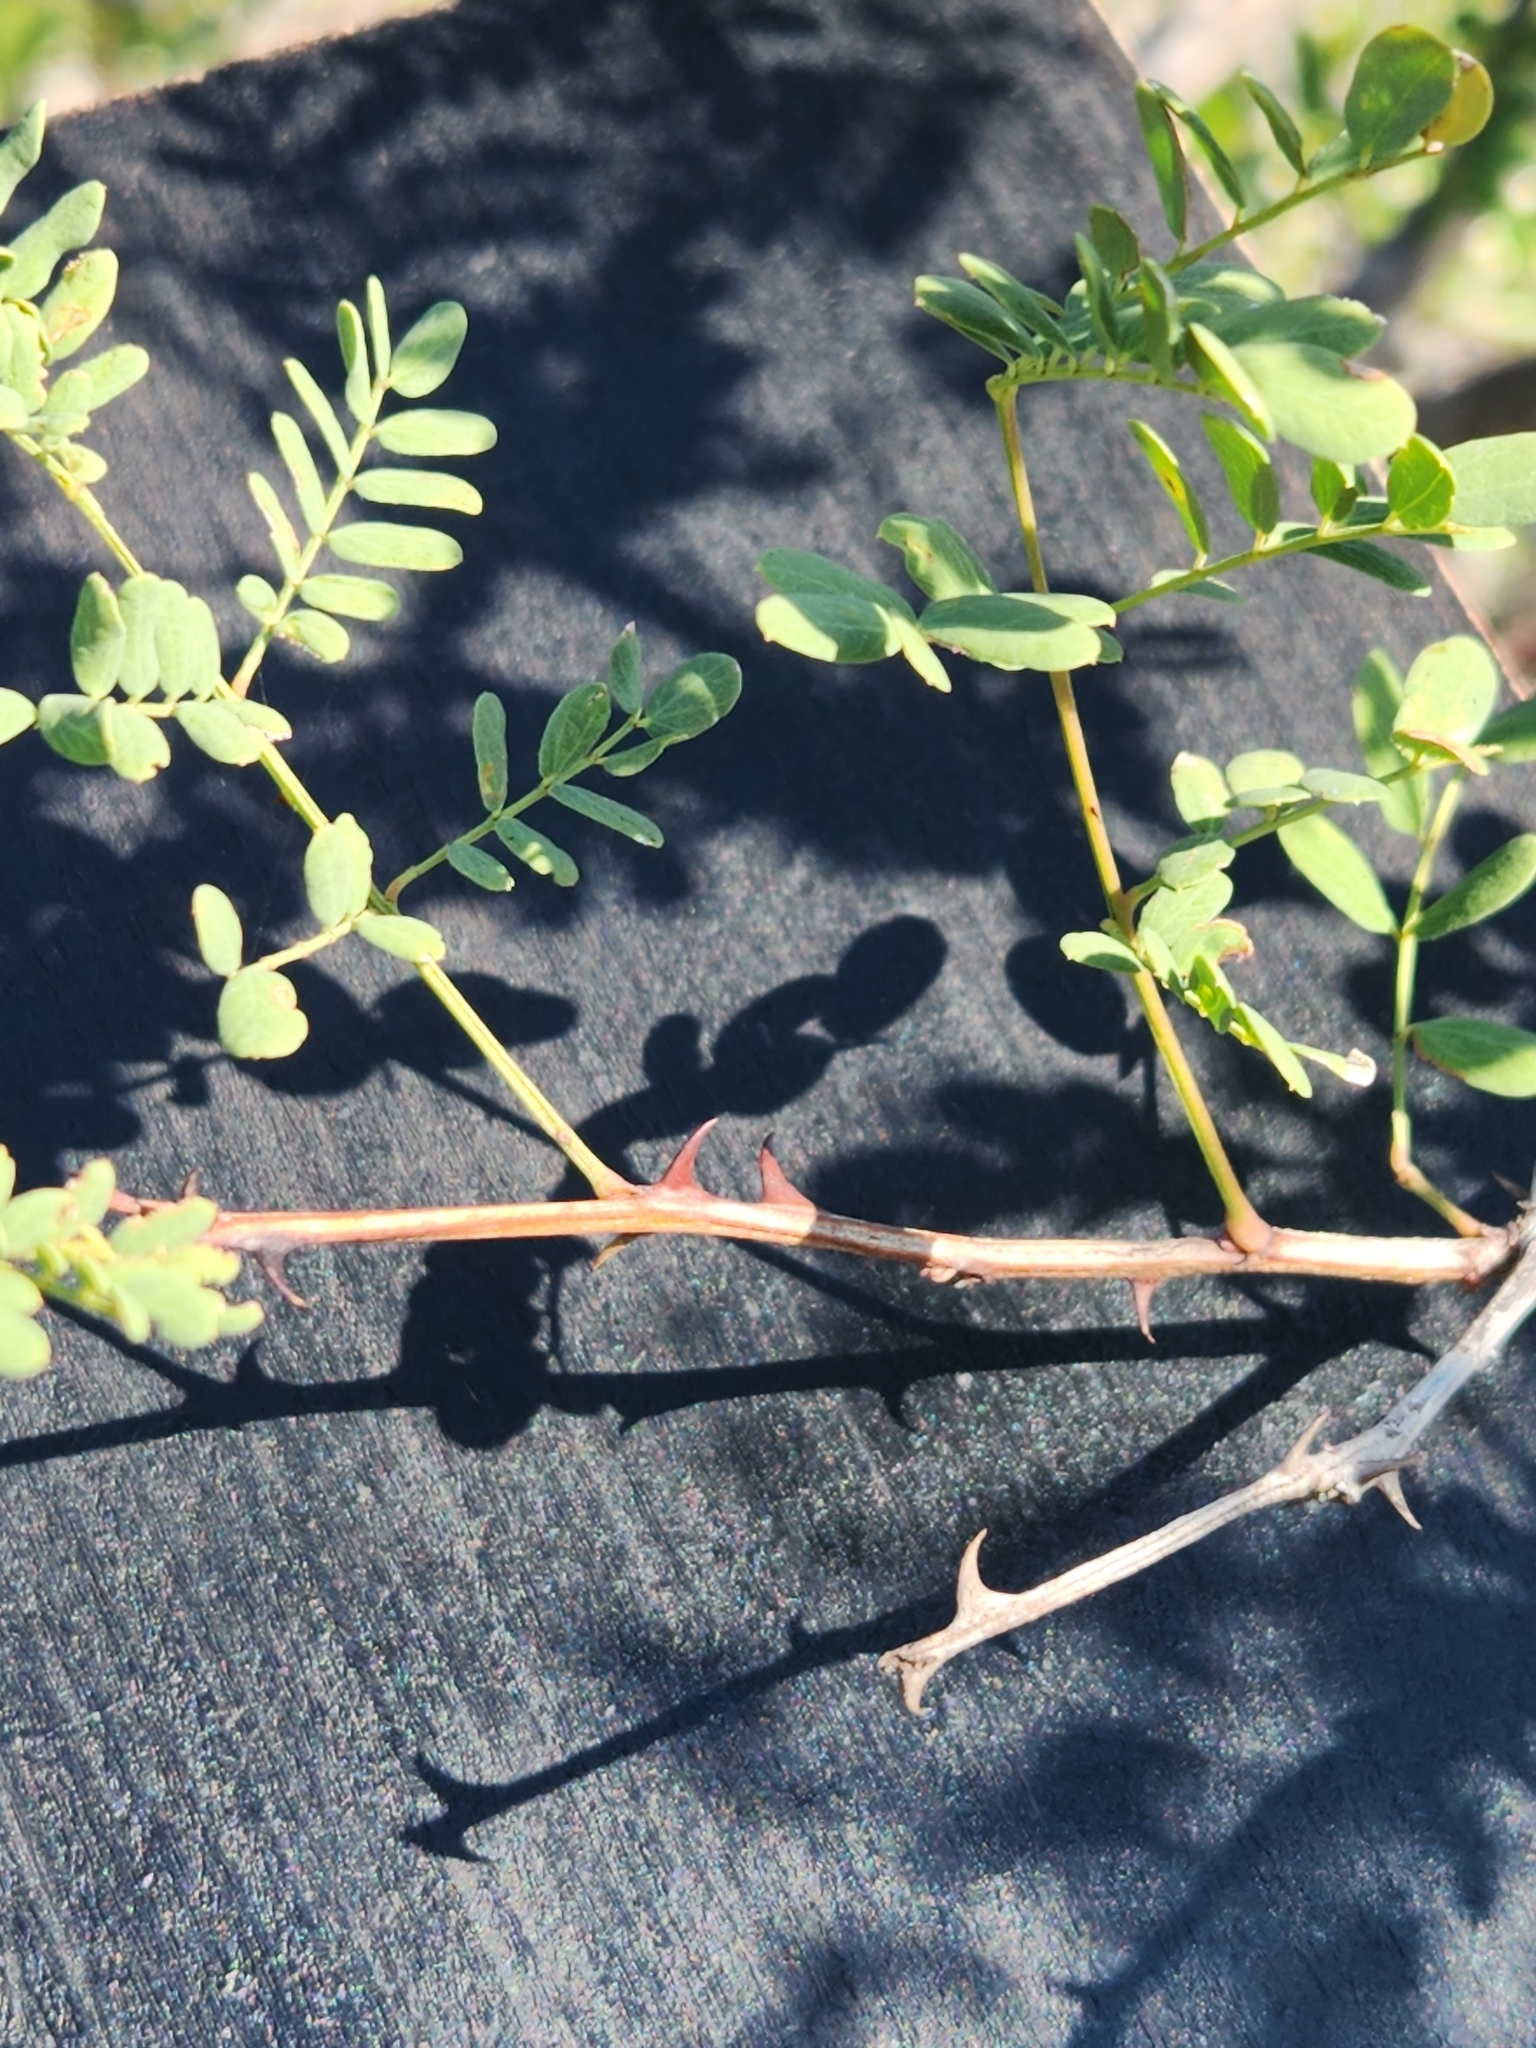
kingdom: Plantae
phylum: Tracheophyta
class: Magnoliopsida
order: Fabales
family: Fabaceae
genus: Senegalia
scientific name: Senegalia roemeriana
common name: Roemer's acacia
